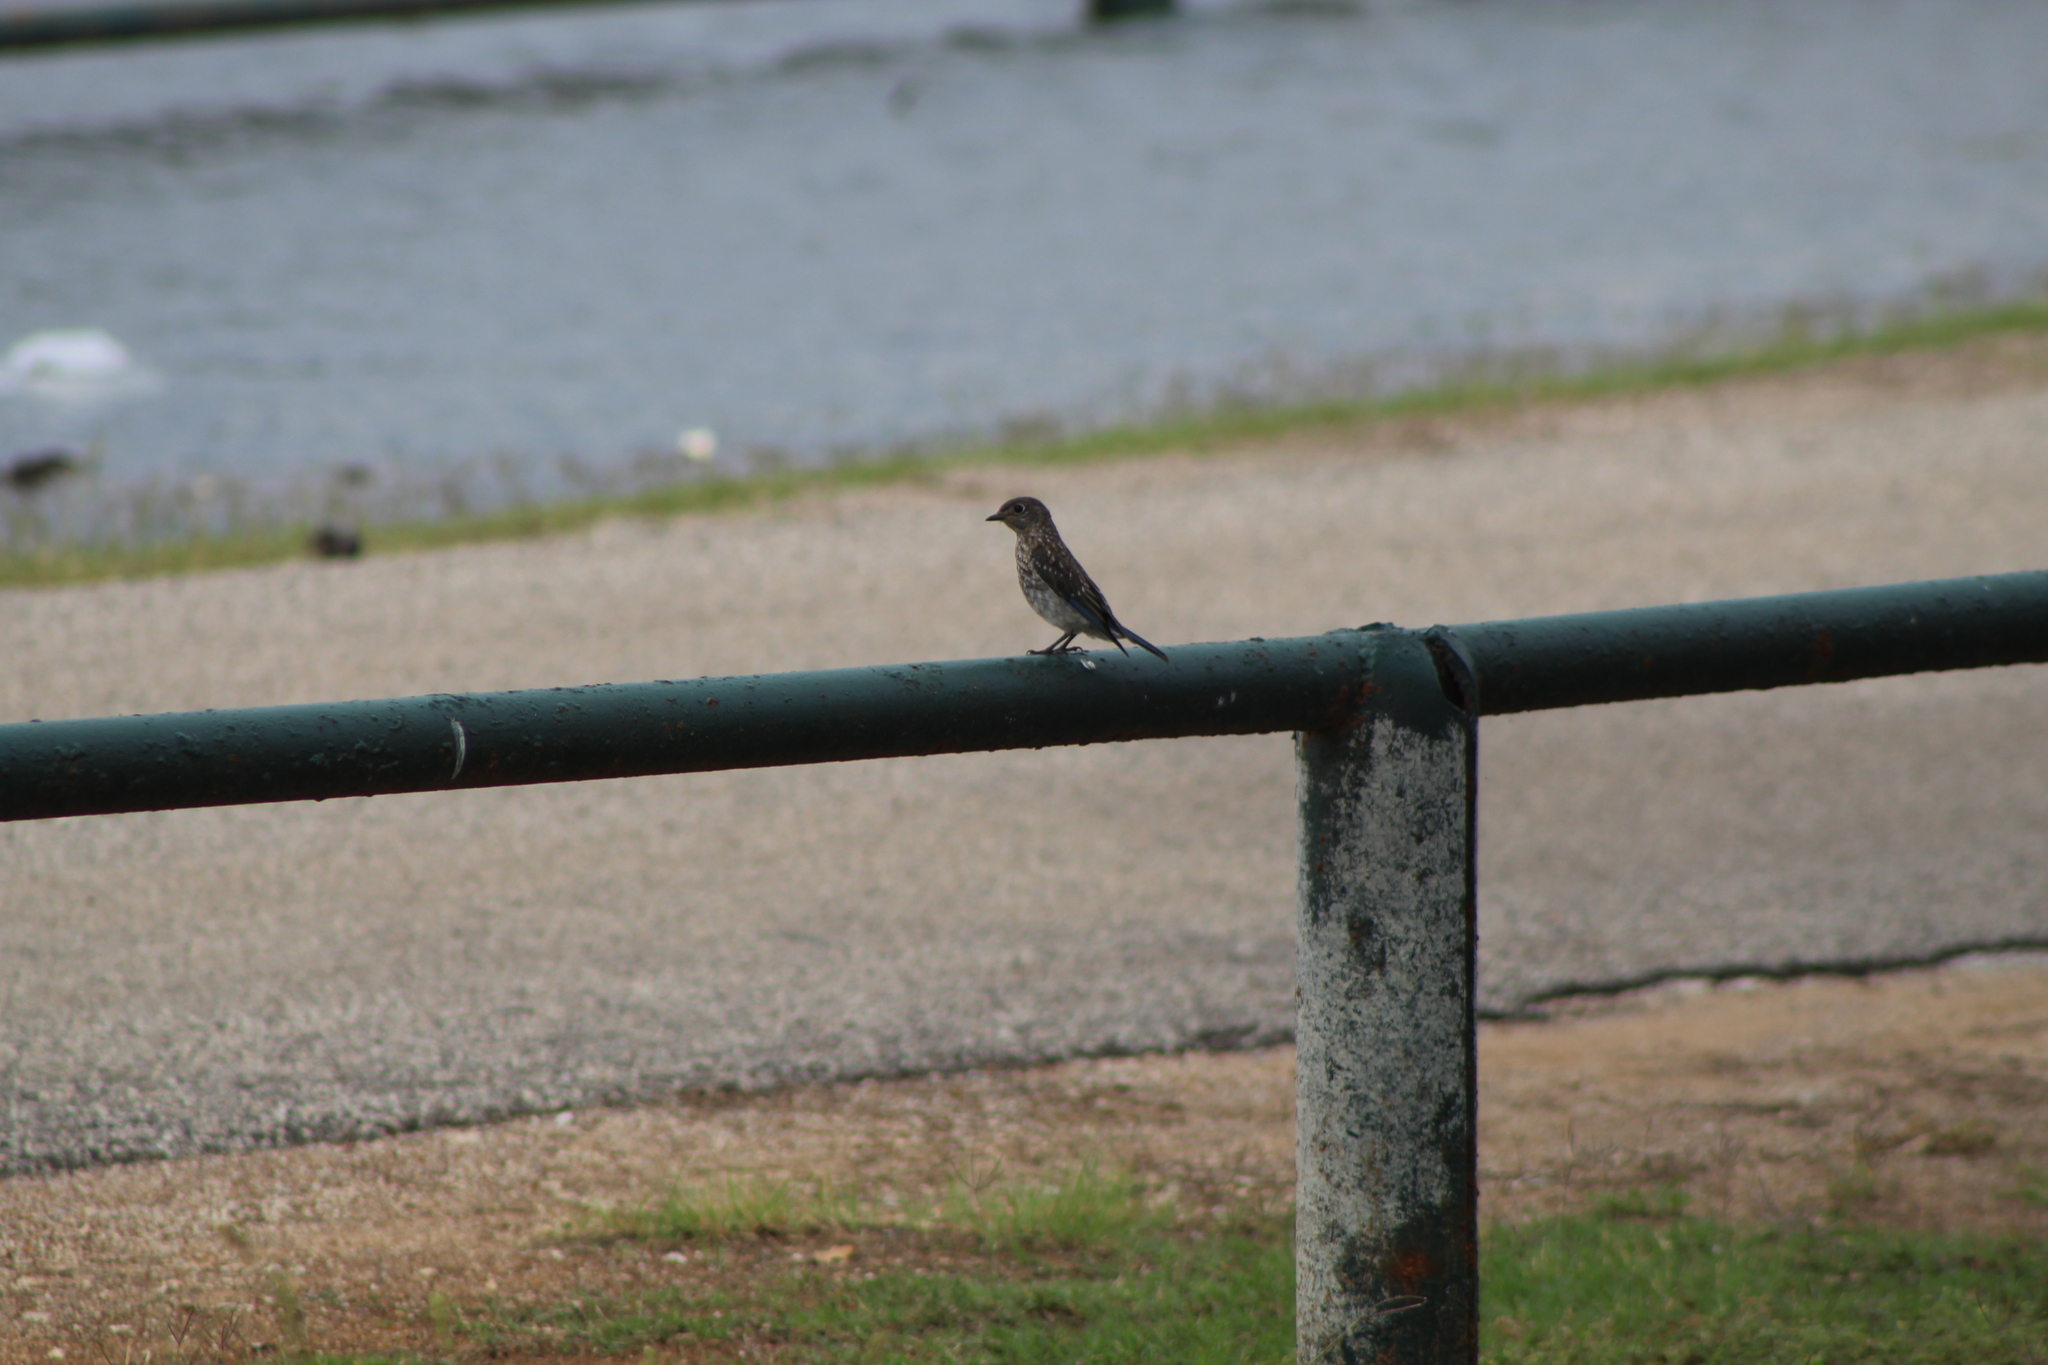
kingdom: Animalia
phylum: Chordata
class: Aves
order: Passeriformes
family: Turdidae
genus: Sialia
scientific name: Sialia sialis
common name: Eastern bluebird
